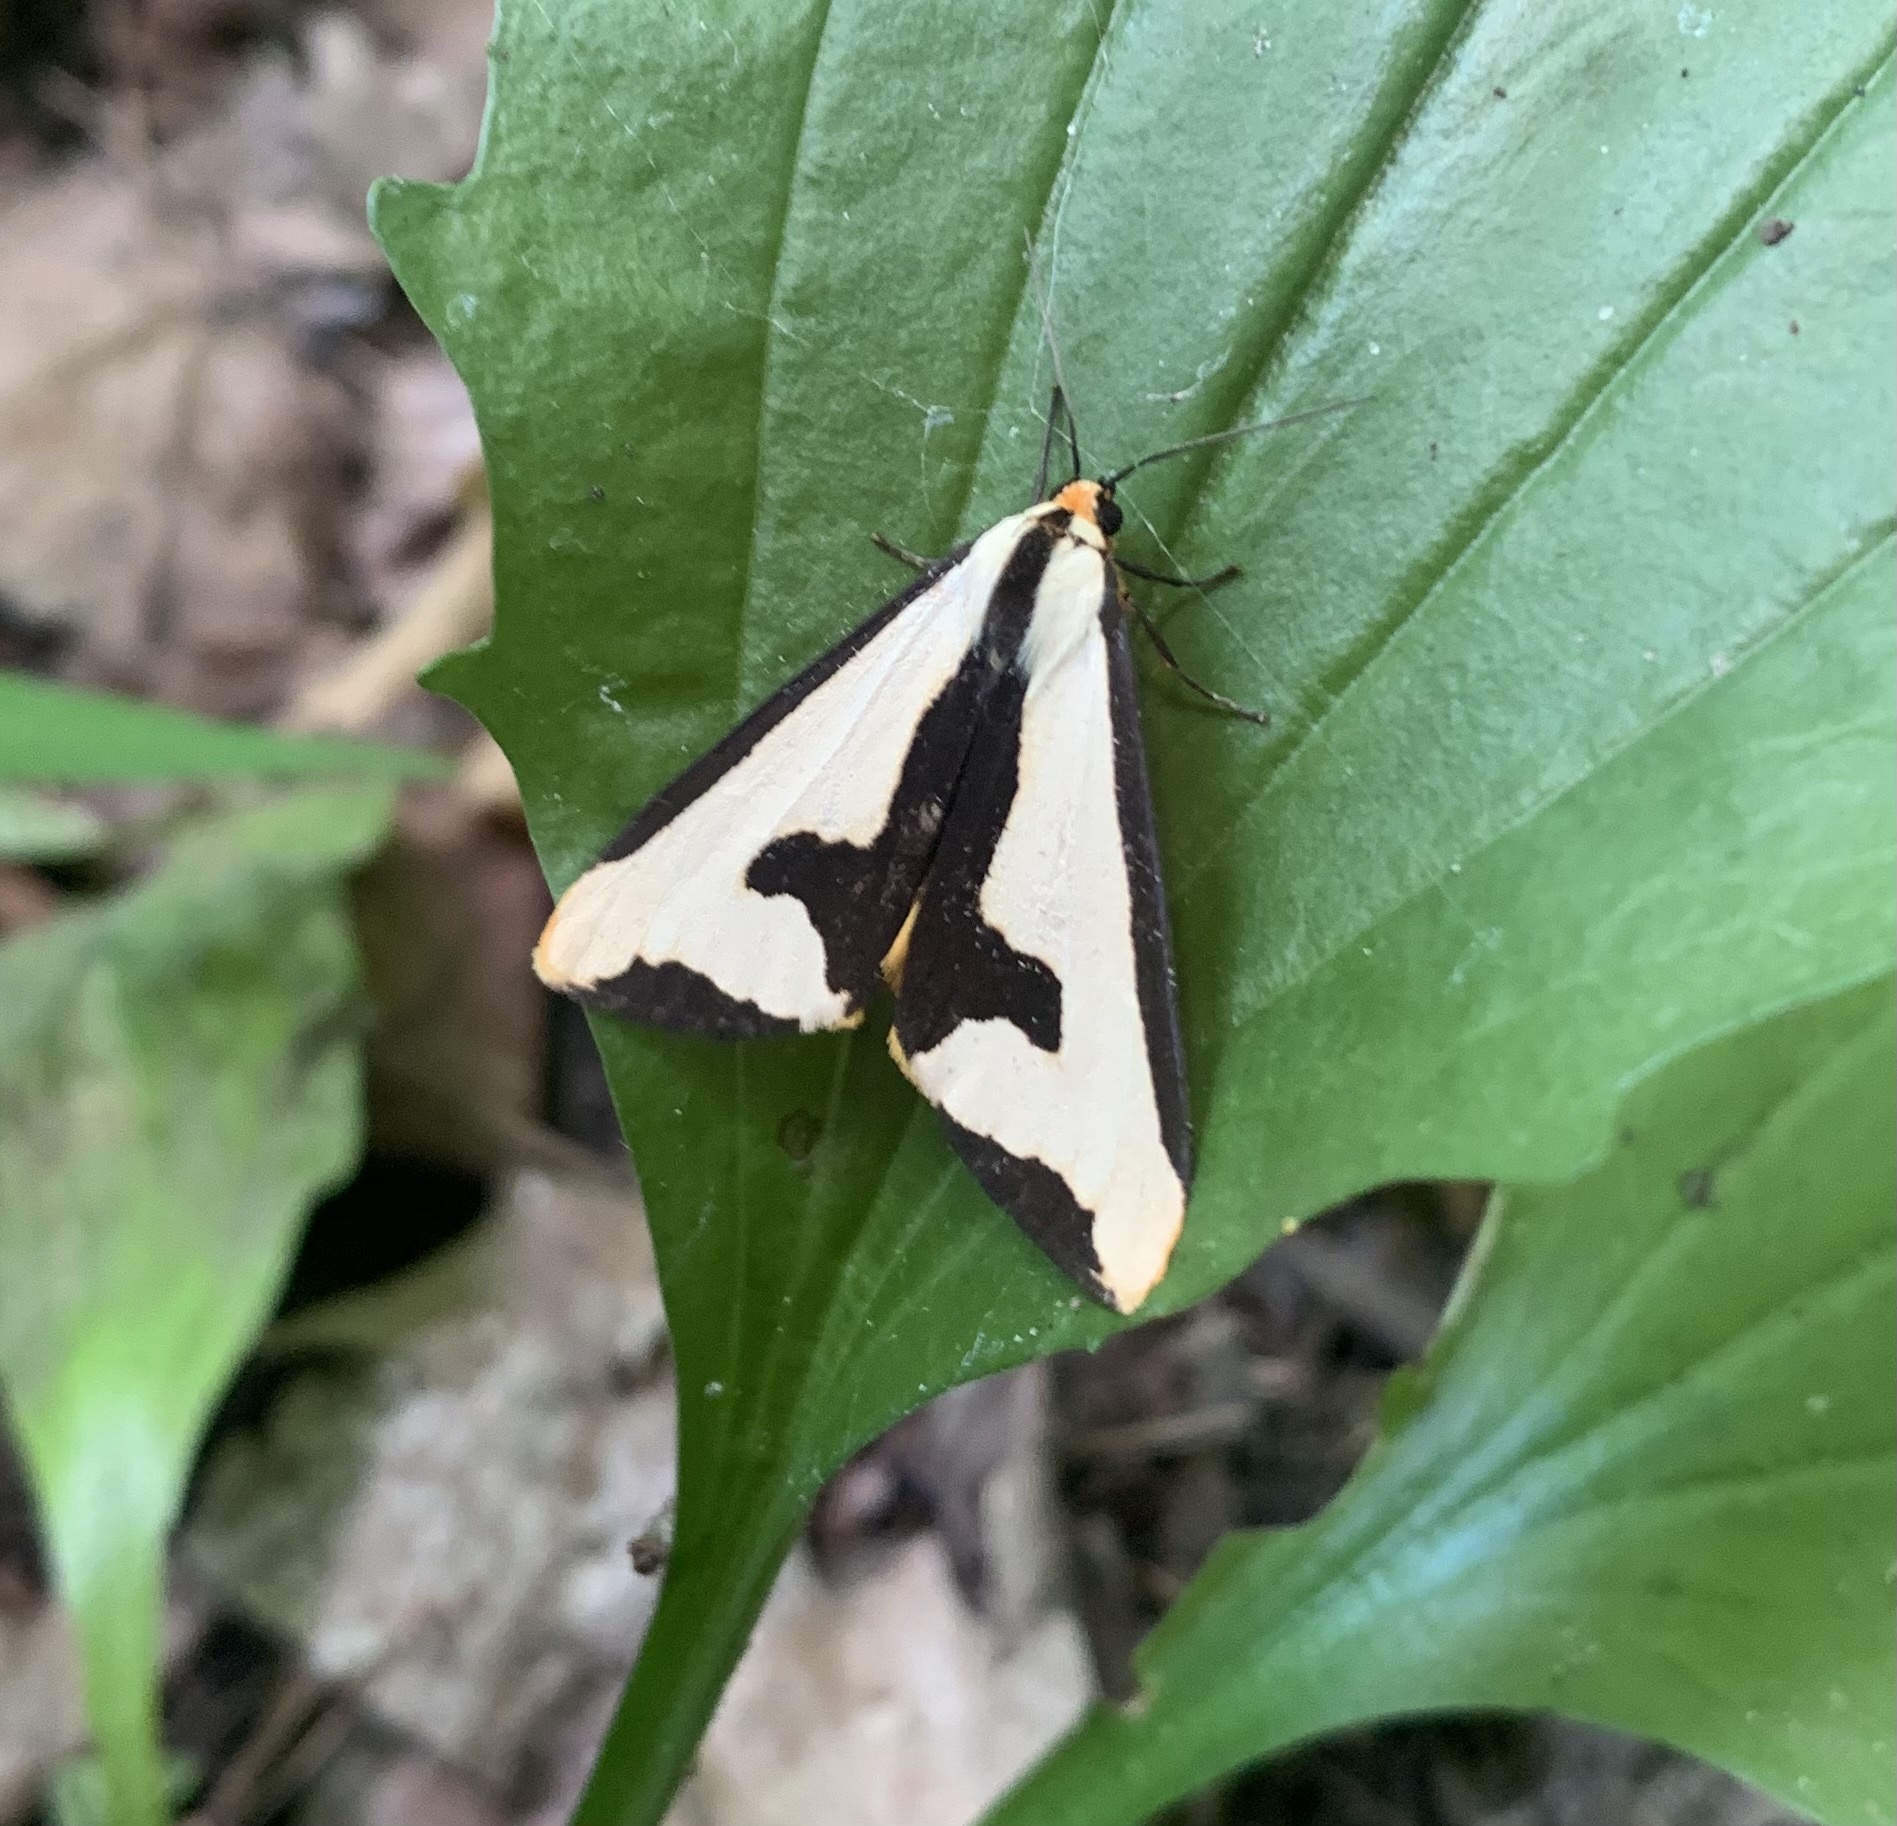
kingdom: Animalia
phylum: Arthropoda
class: Insecta
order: Lepidoptera
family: Erebidae
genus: Haploa
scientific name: Haploa clymene
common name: Clymene moth
